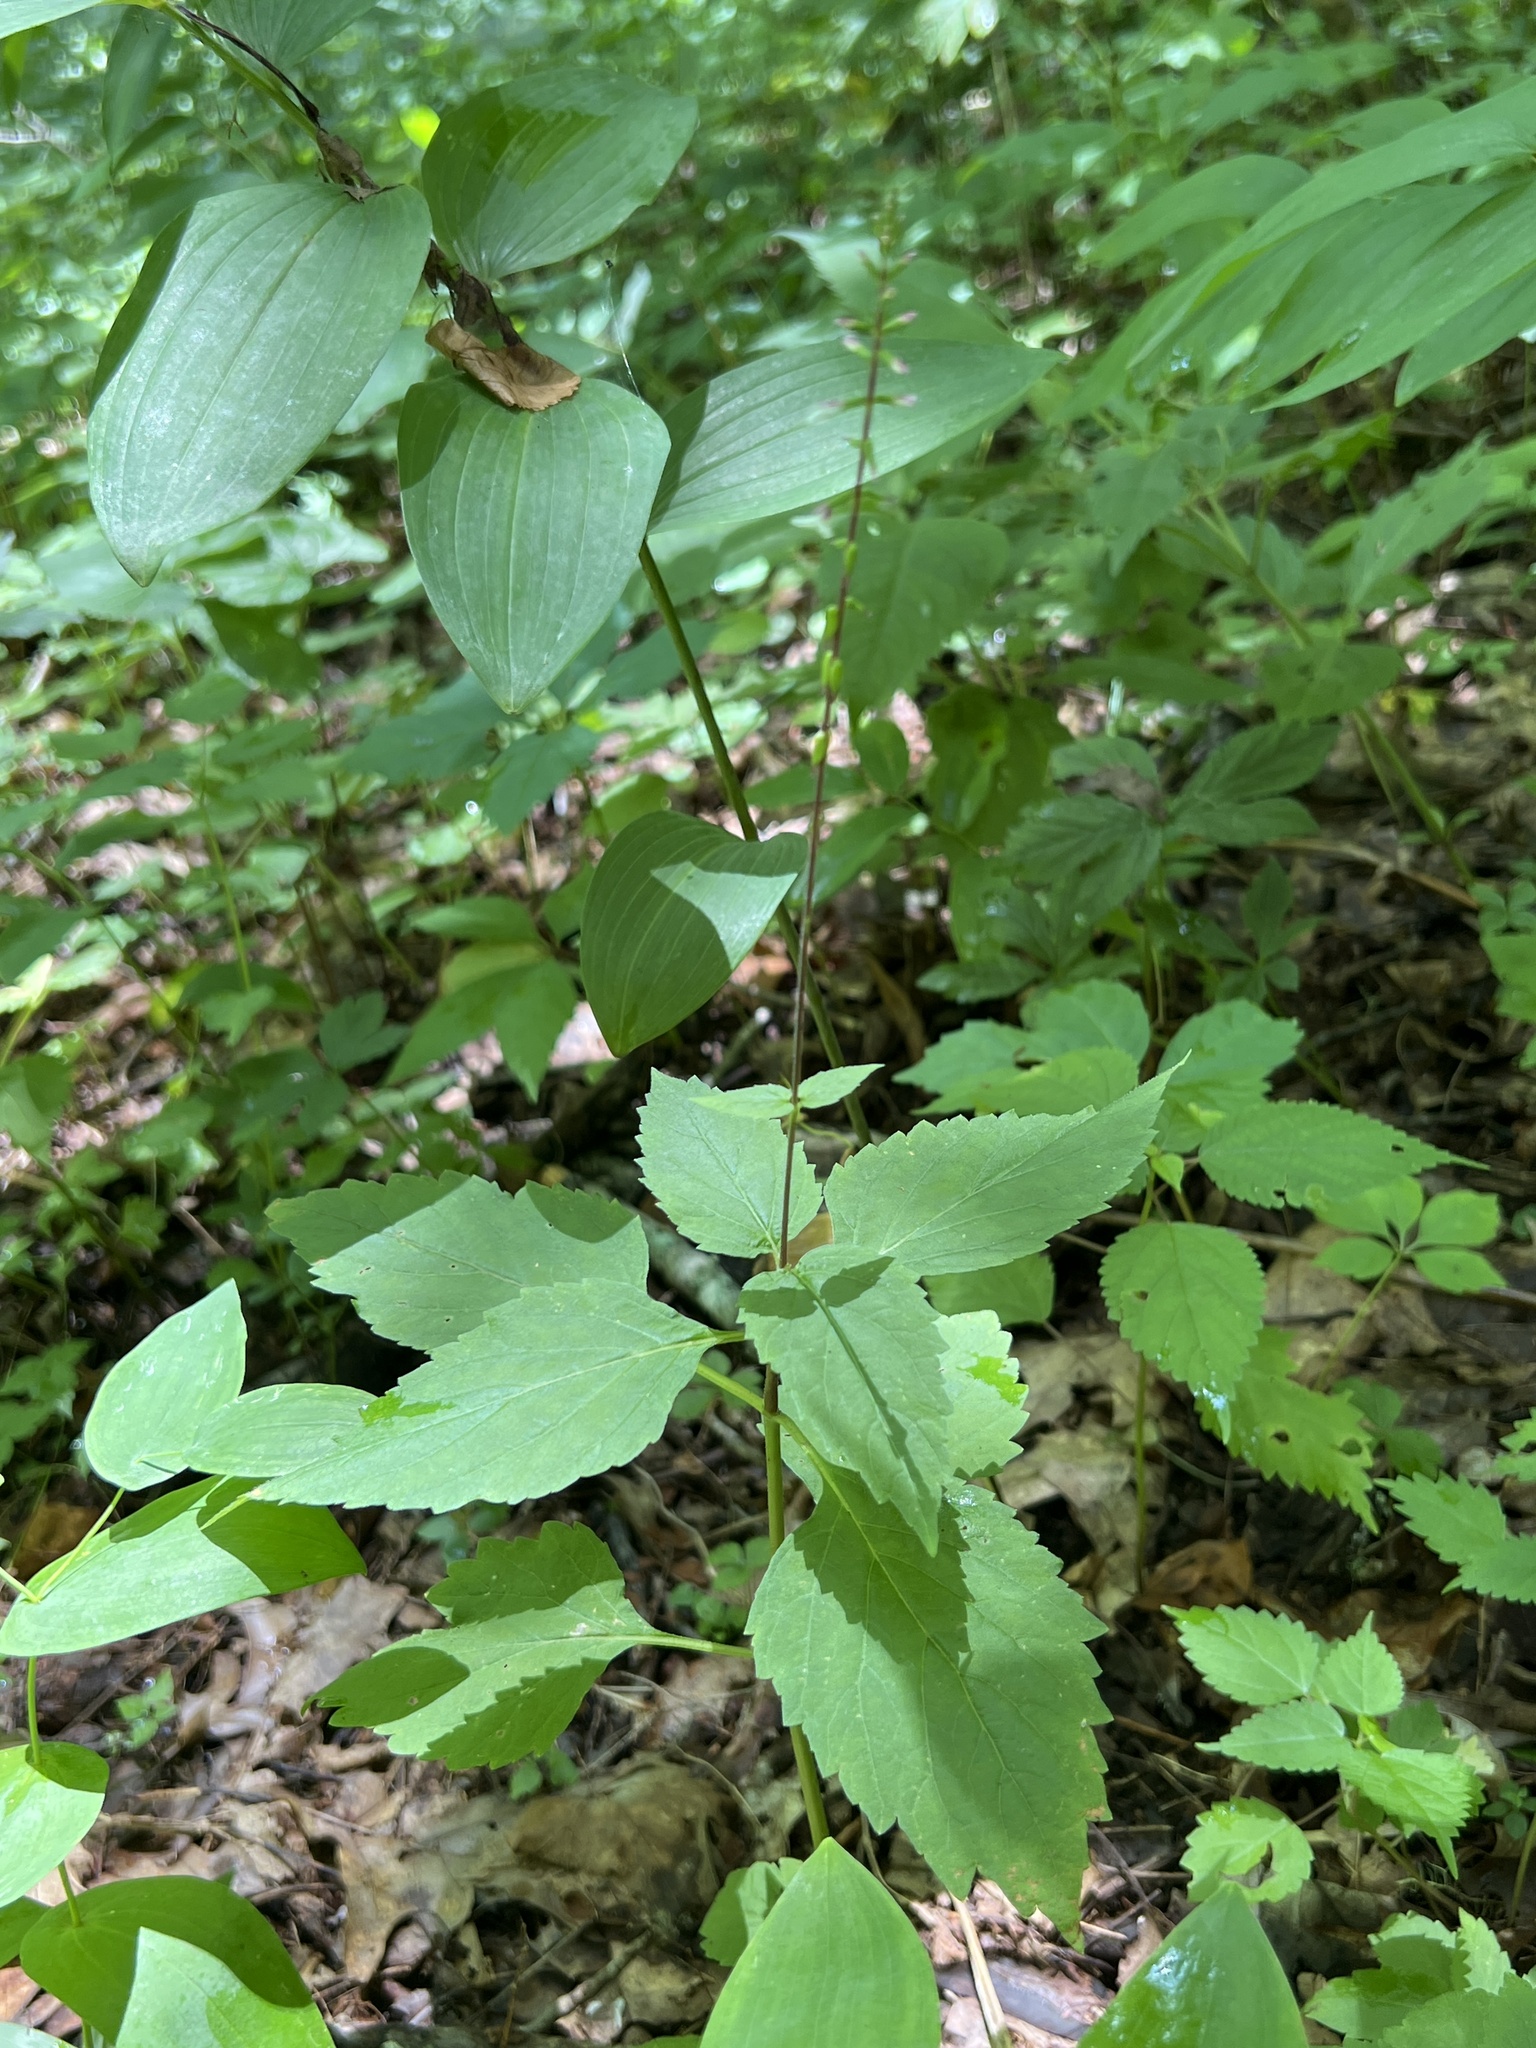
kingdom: Plantae
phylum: Tracheophyta
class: Magnoliopsida
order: Lamiales
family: Phrymaceae
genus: Phryma
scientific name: Phryma leptostachya
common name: American lopseed
